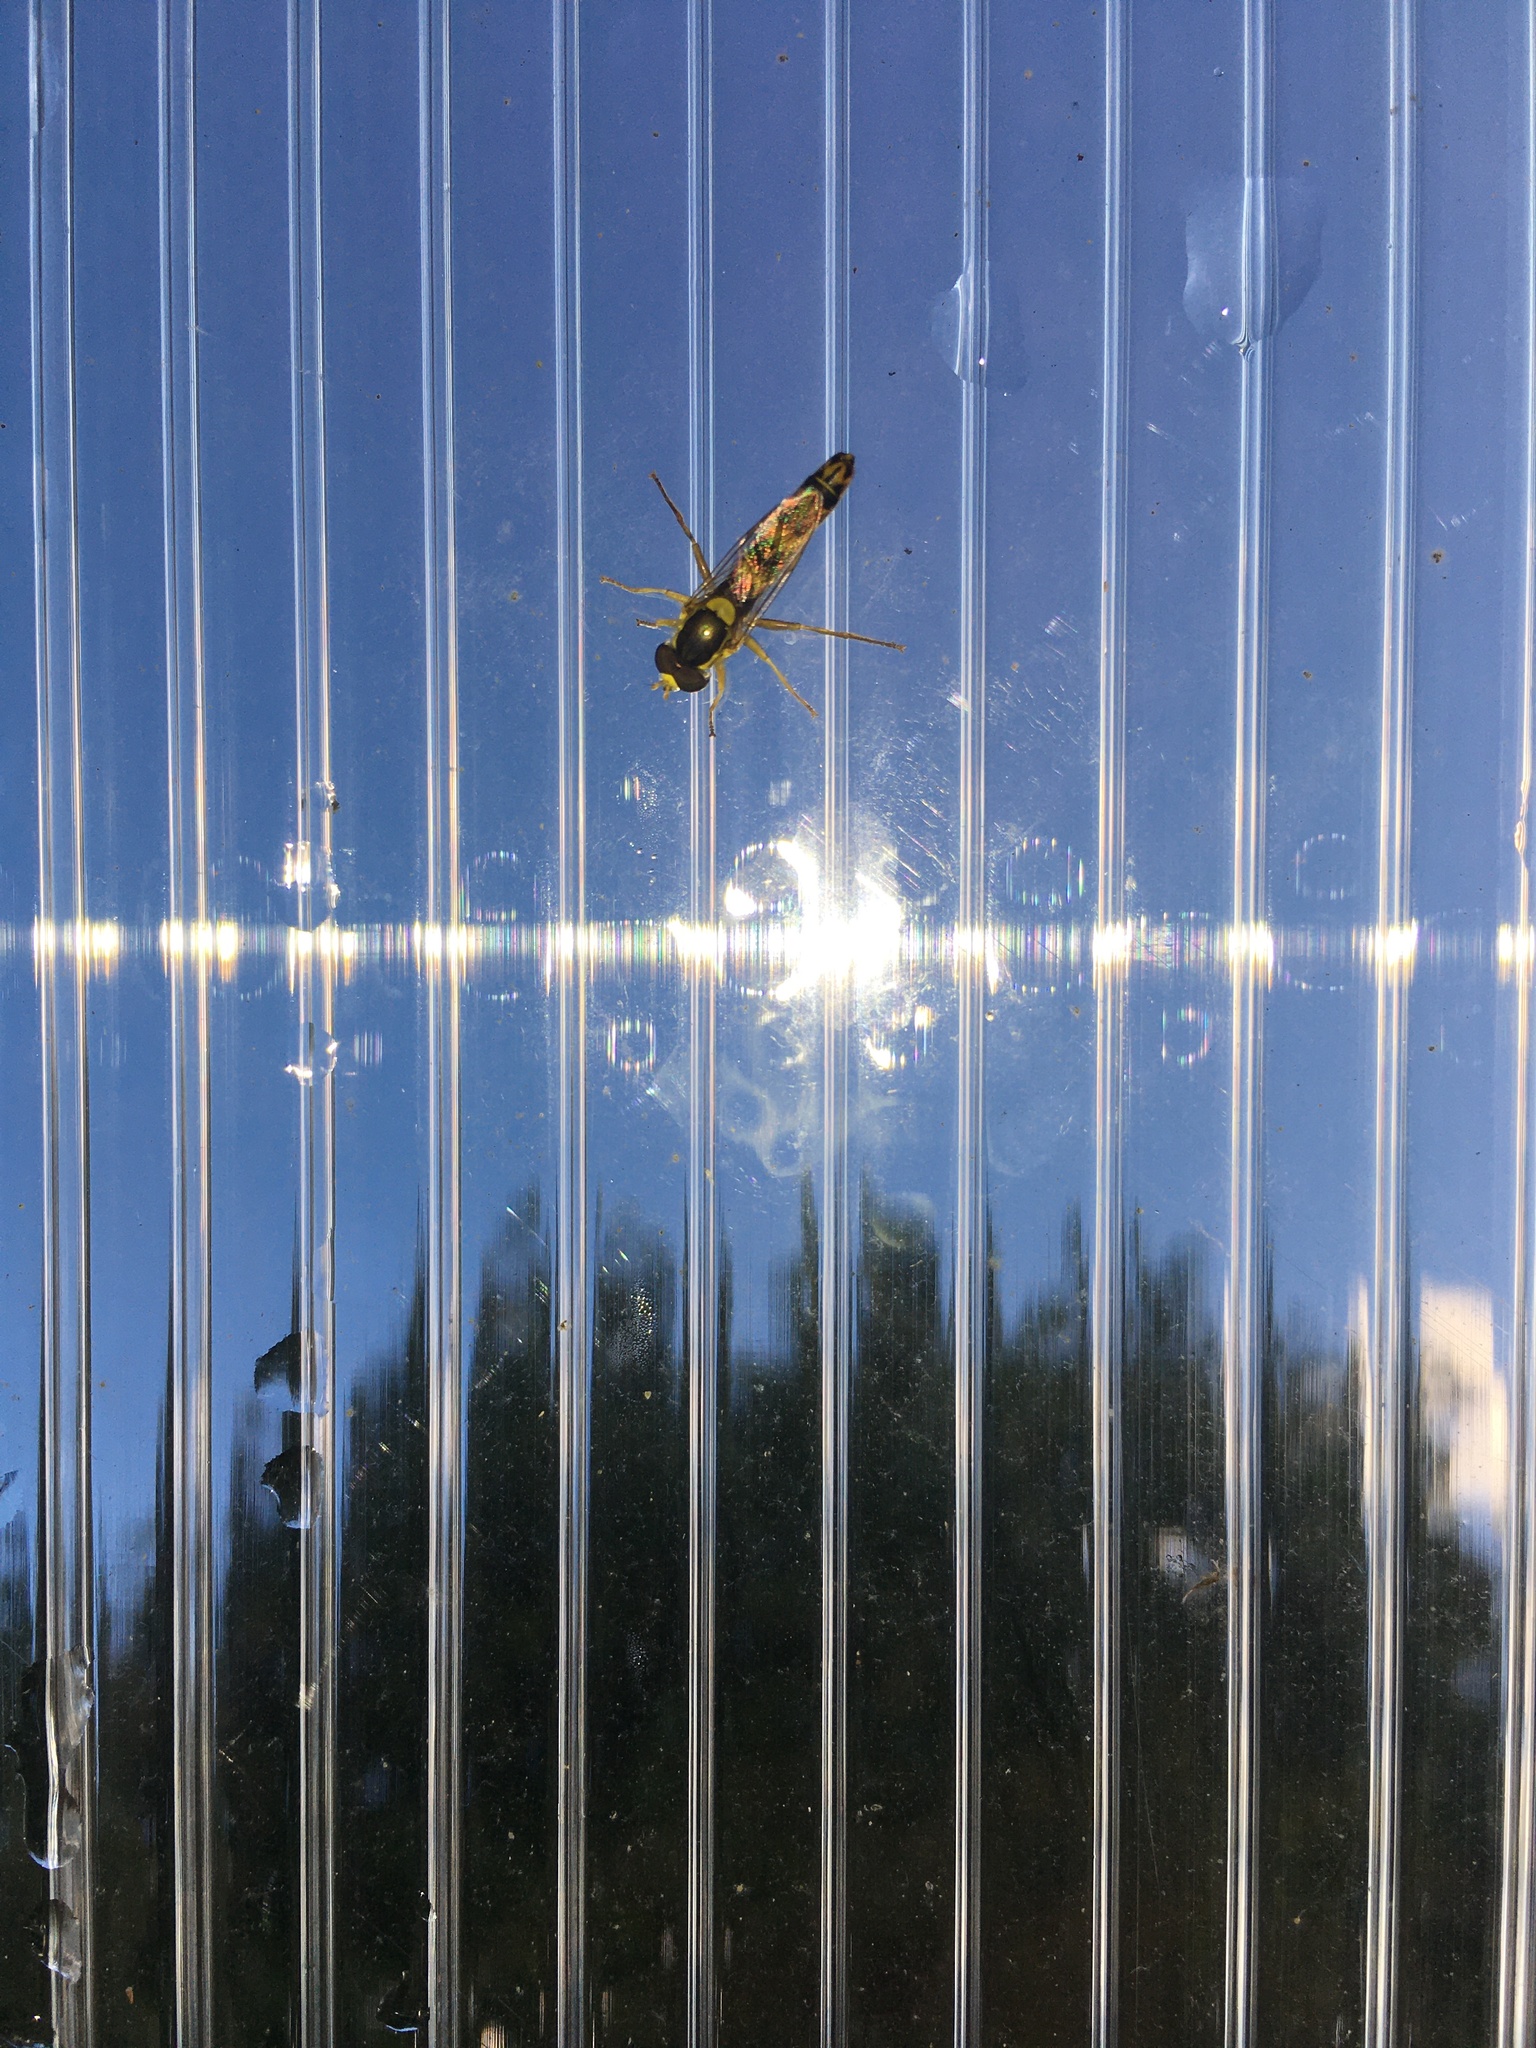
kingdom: Animalia
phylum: Arthropoda
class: Insecta
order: Diptera
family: Syrphidae
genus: Sphaerophoria
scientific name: Sphaerophoria scripta
